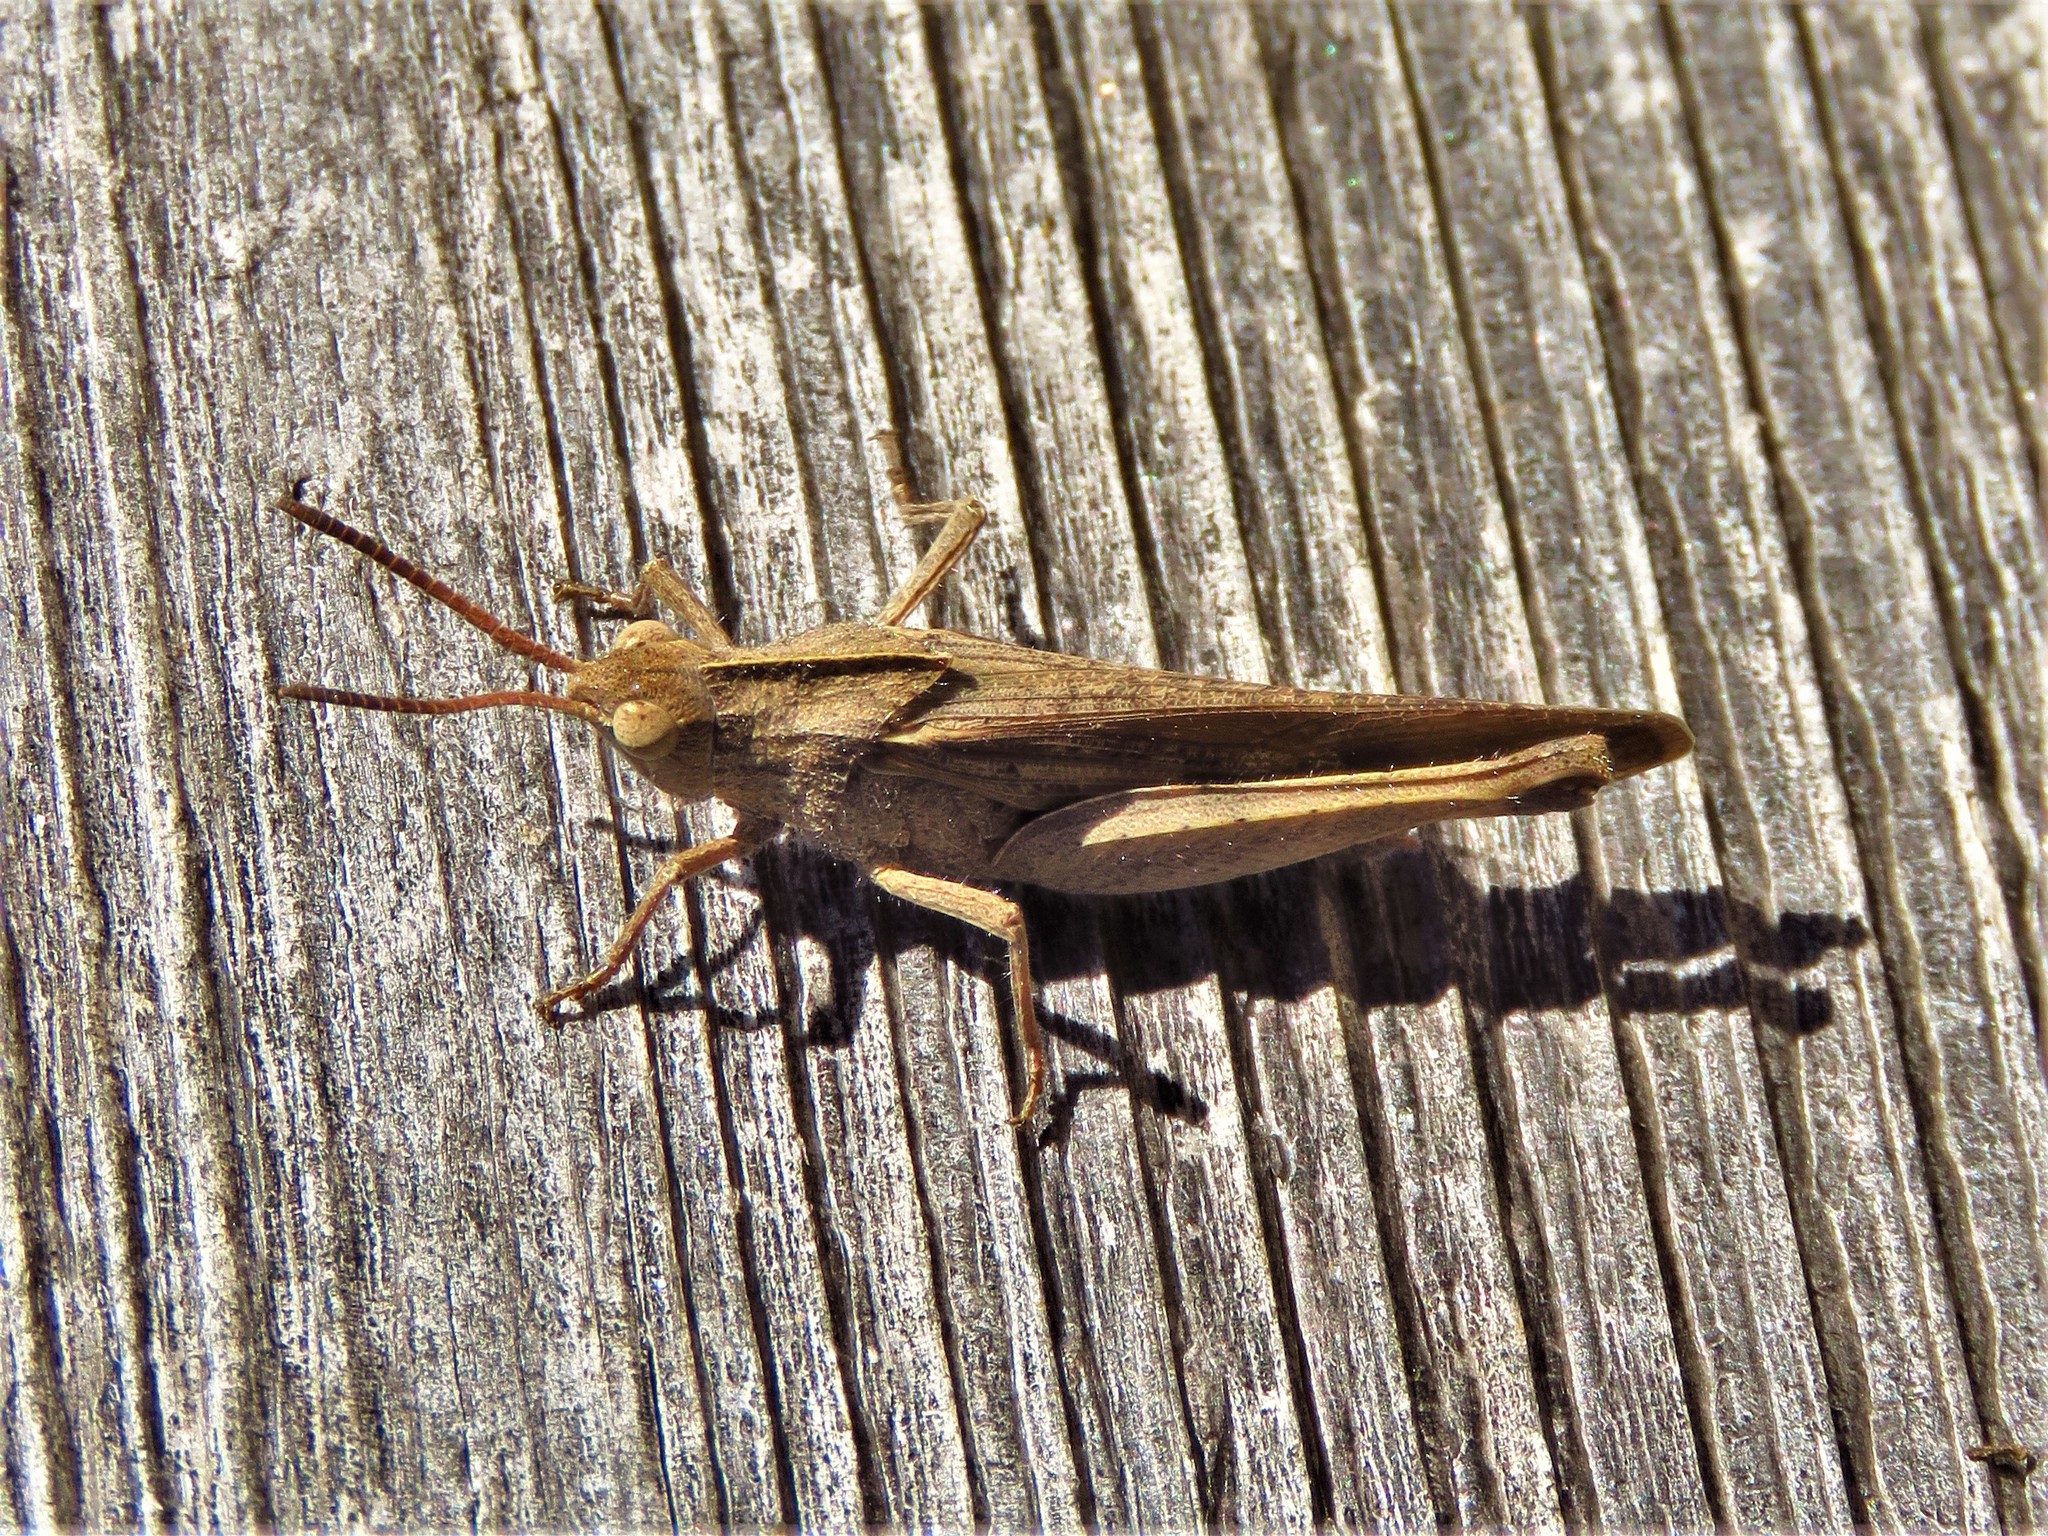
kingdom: Animalia
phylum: Arthropoda
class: Insecta
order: Orthoptera
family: Acrididae
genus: Chortophaga
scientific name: Chortophaga viridifasciata
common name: Green-striped grasshopper
